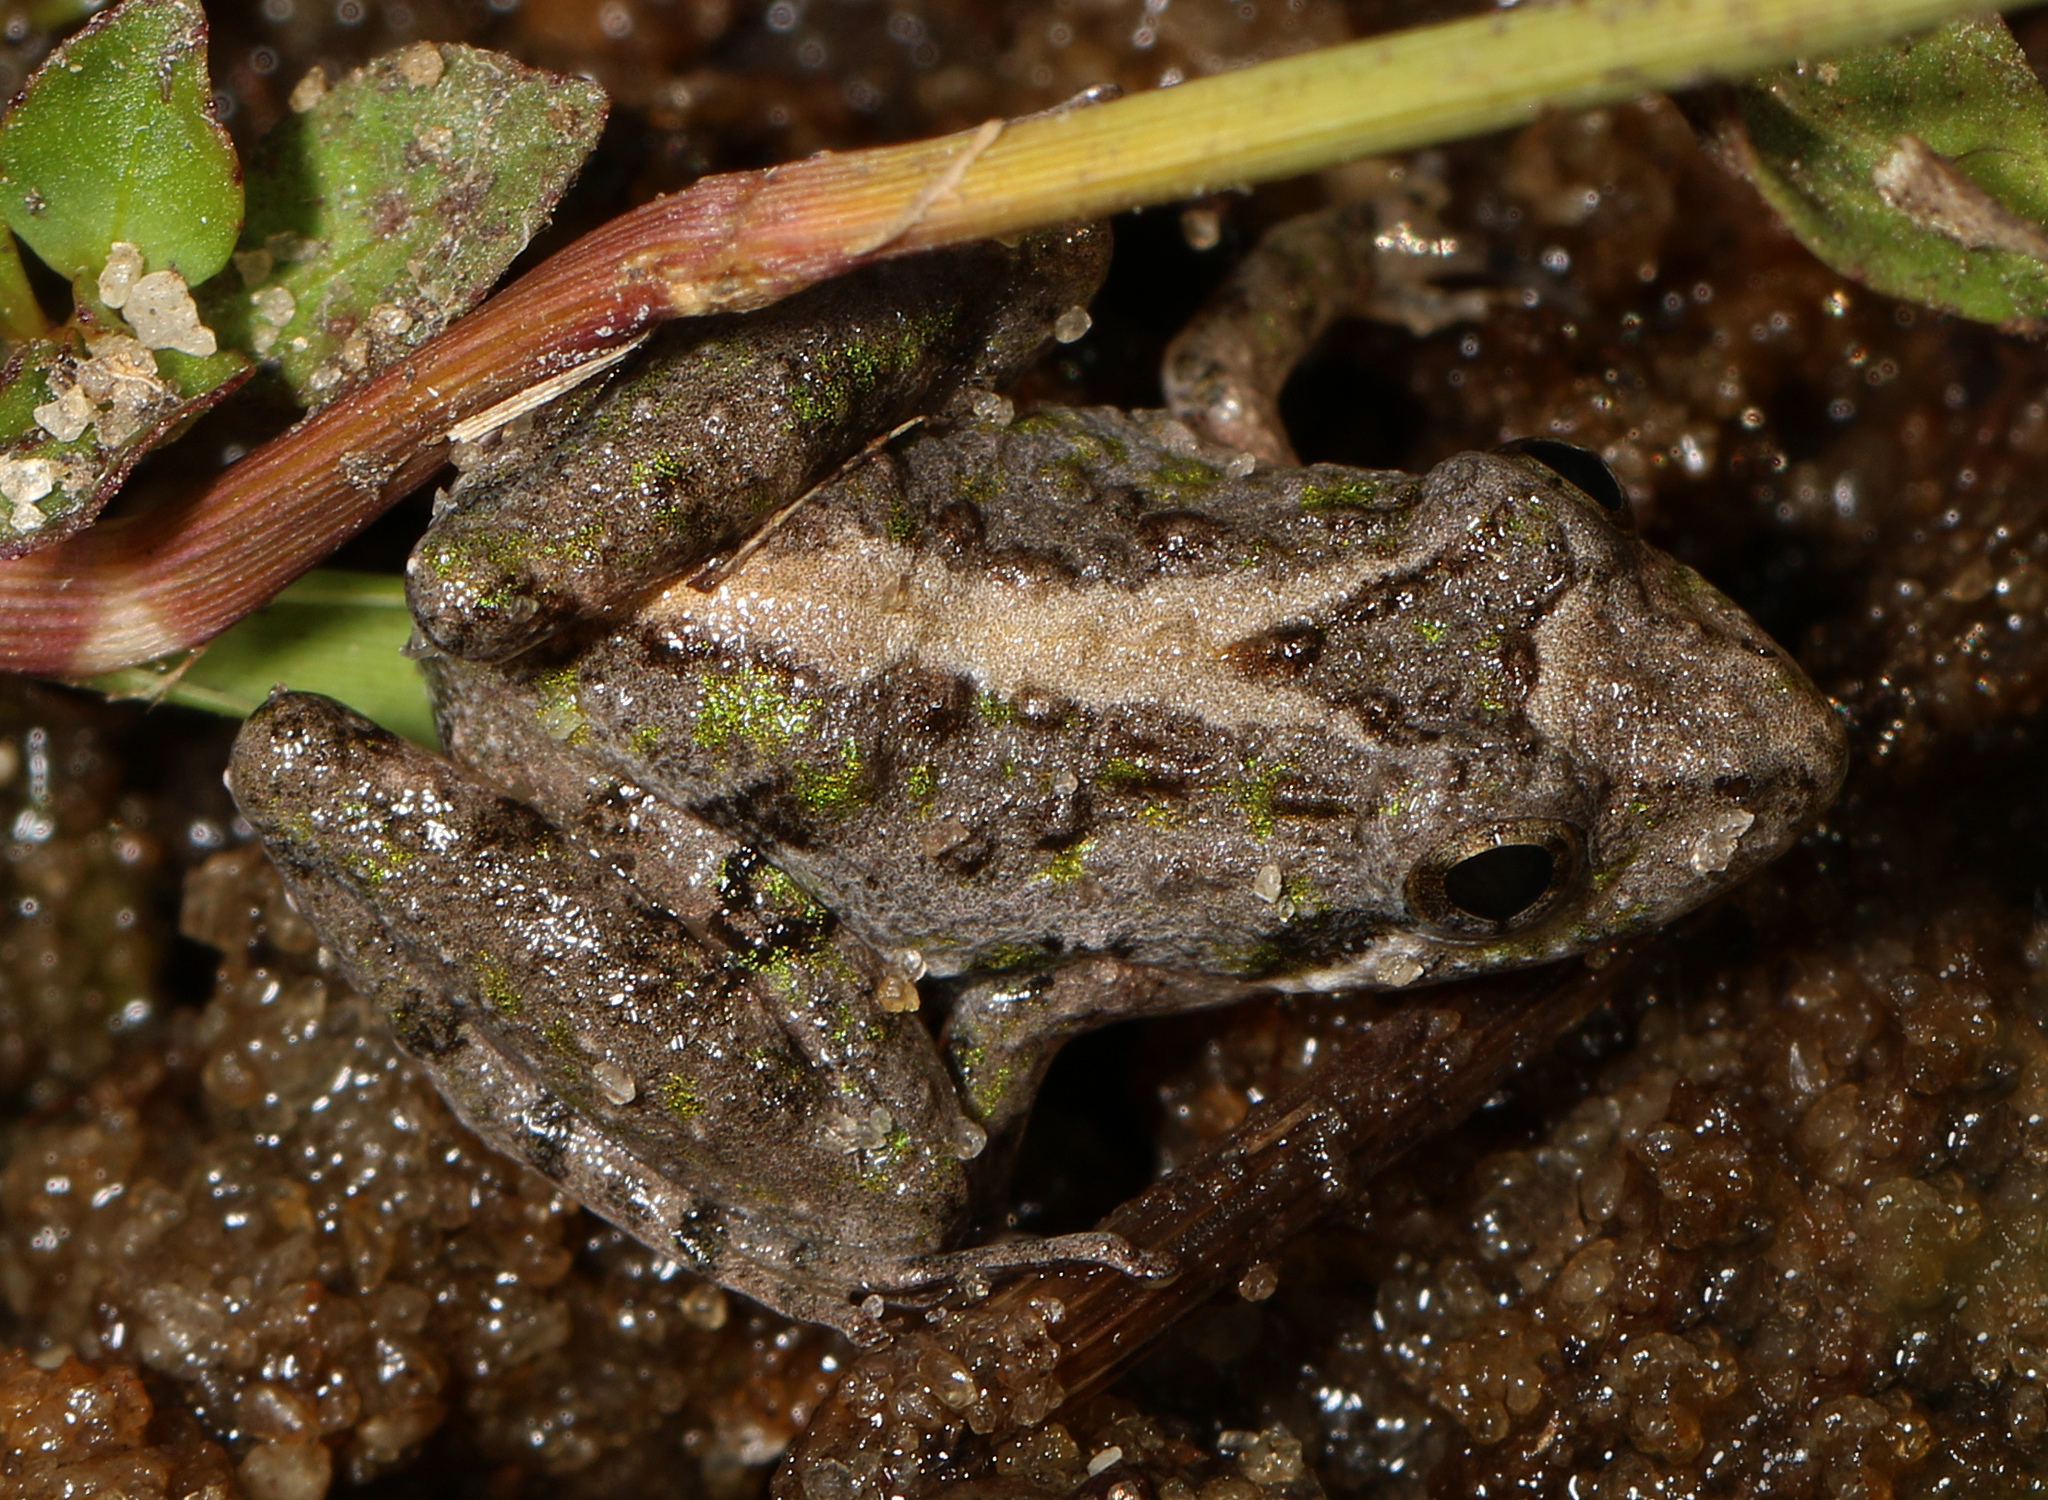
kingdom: Animalia
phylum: Chordata
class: Amphibia
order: Anura
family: Hylidae
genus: Acris
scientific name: Acris gryllus
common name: Southern cricket frog
